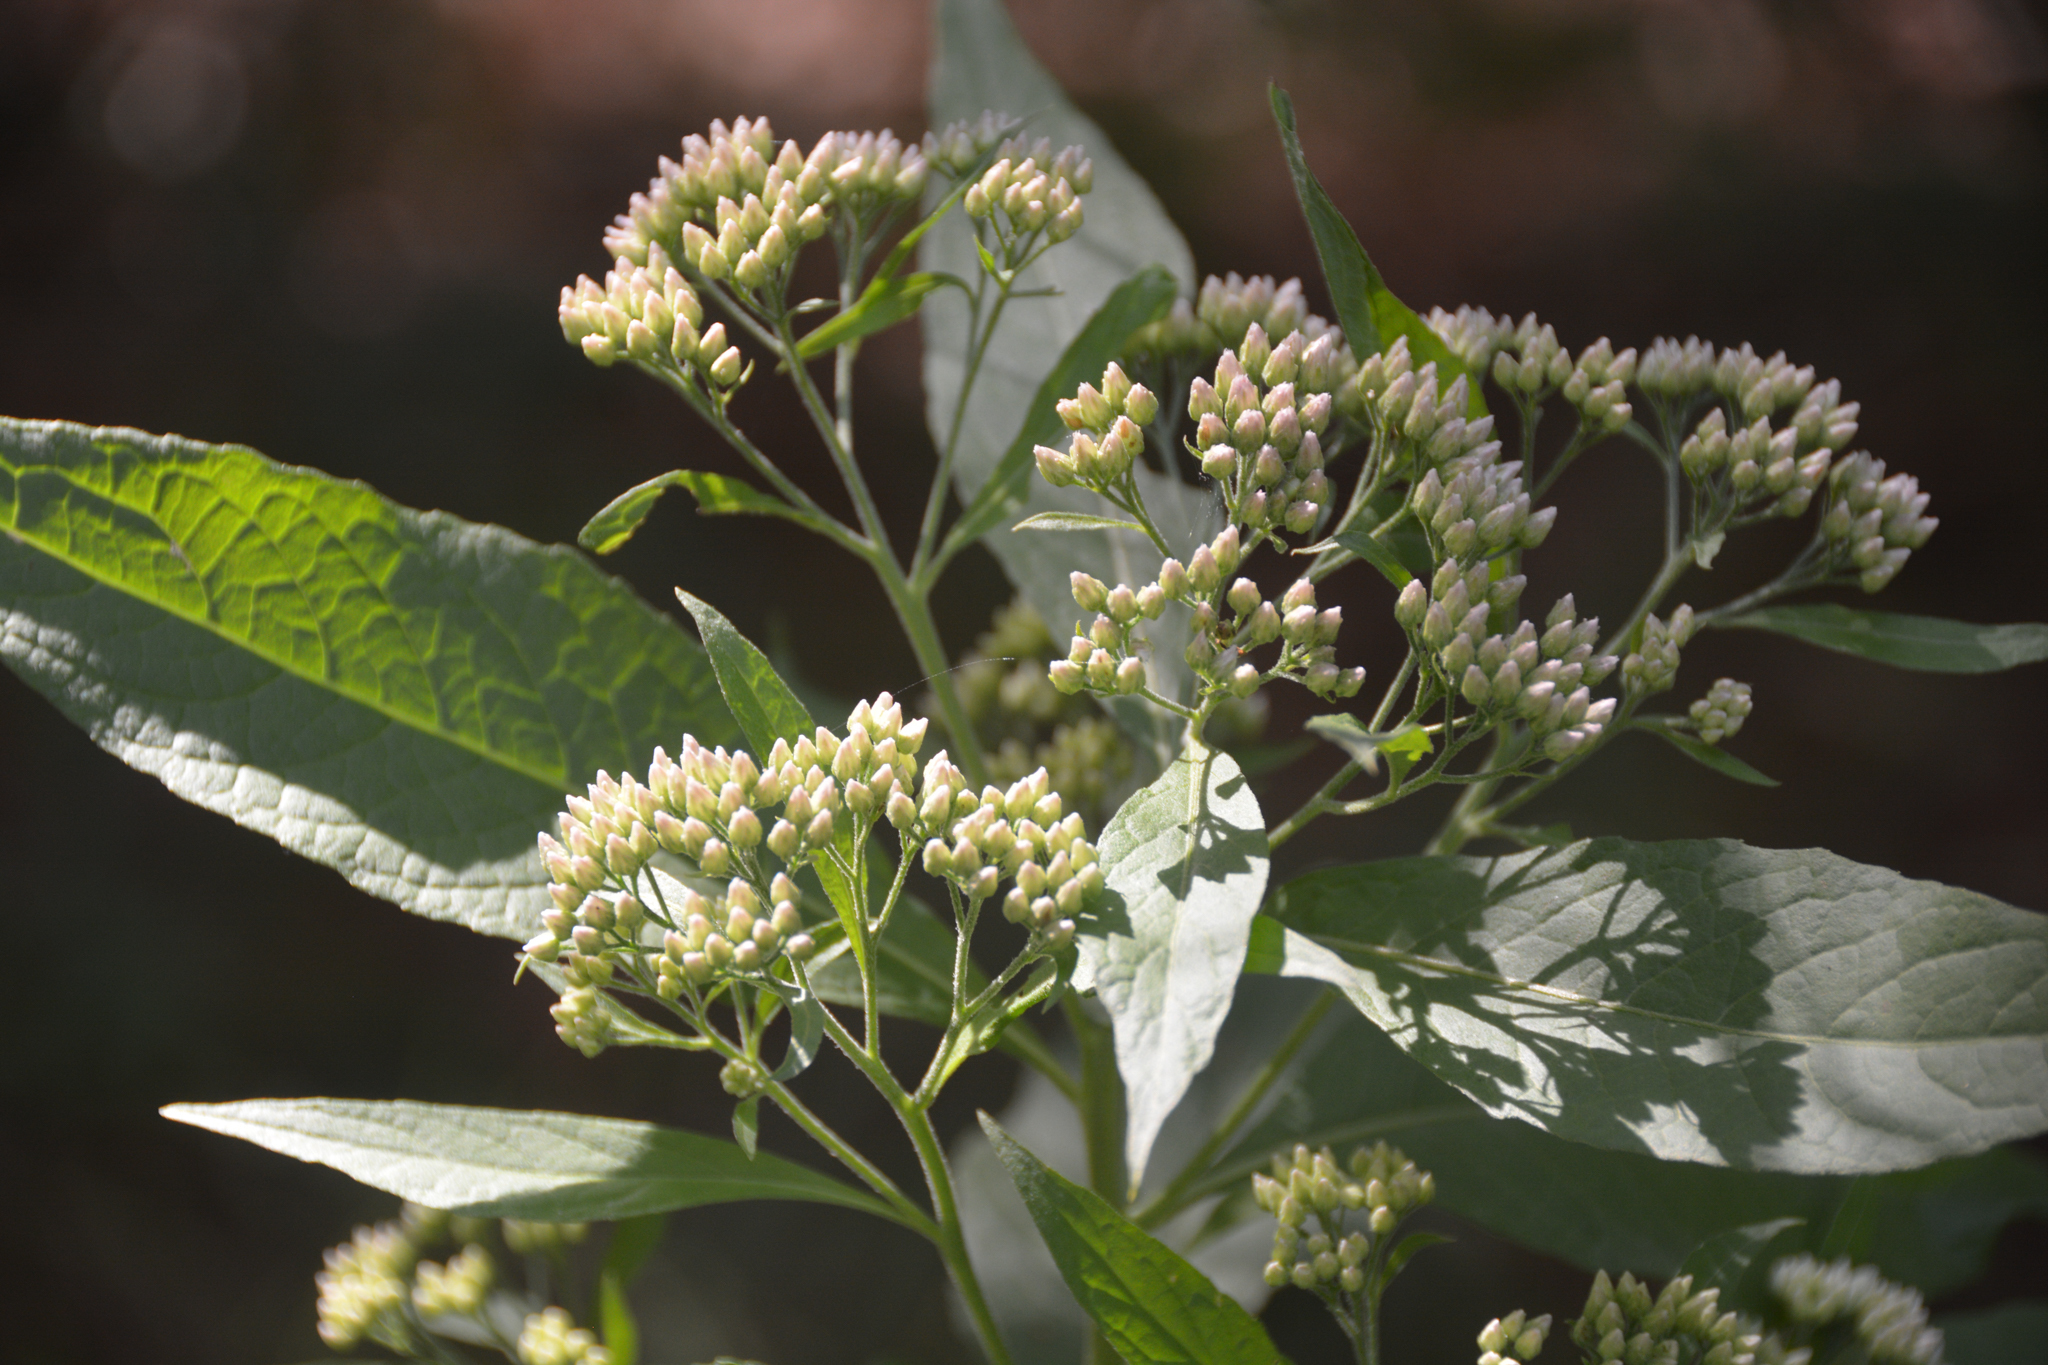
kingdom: Plantae
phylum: Tracheophyta
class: Magnoliopsida
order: Asterales
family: Asteraceae
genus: Pluchea
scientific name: Pluchea camphorata
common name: Camphor pluchea
